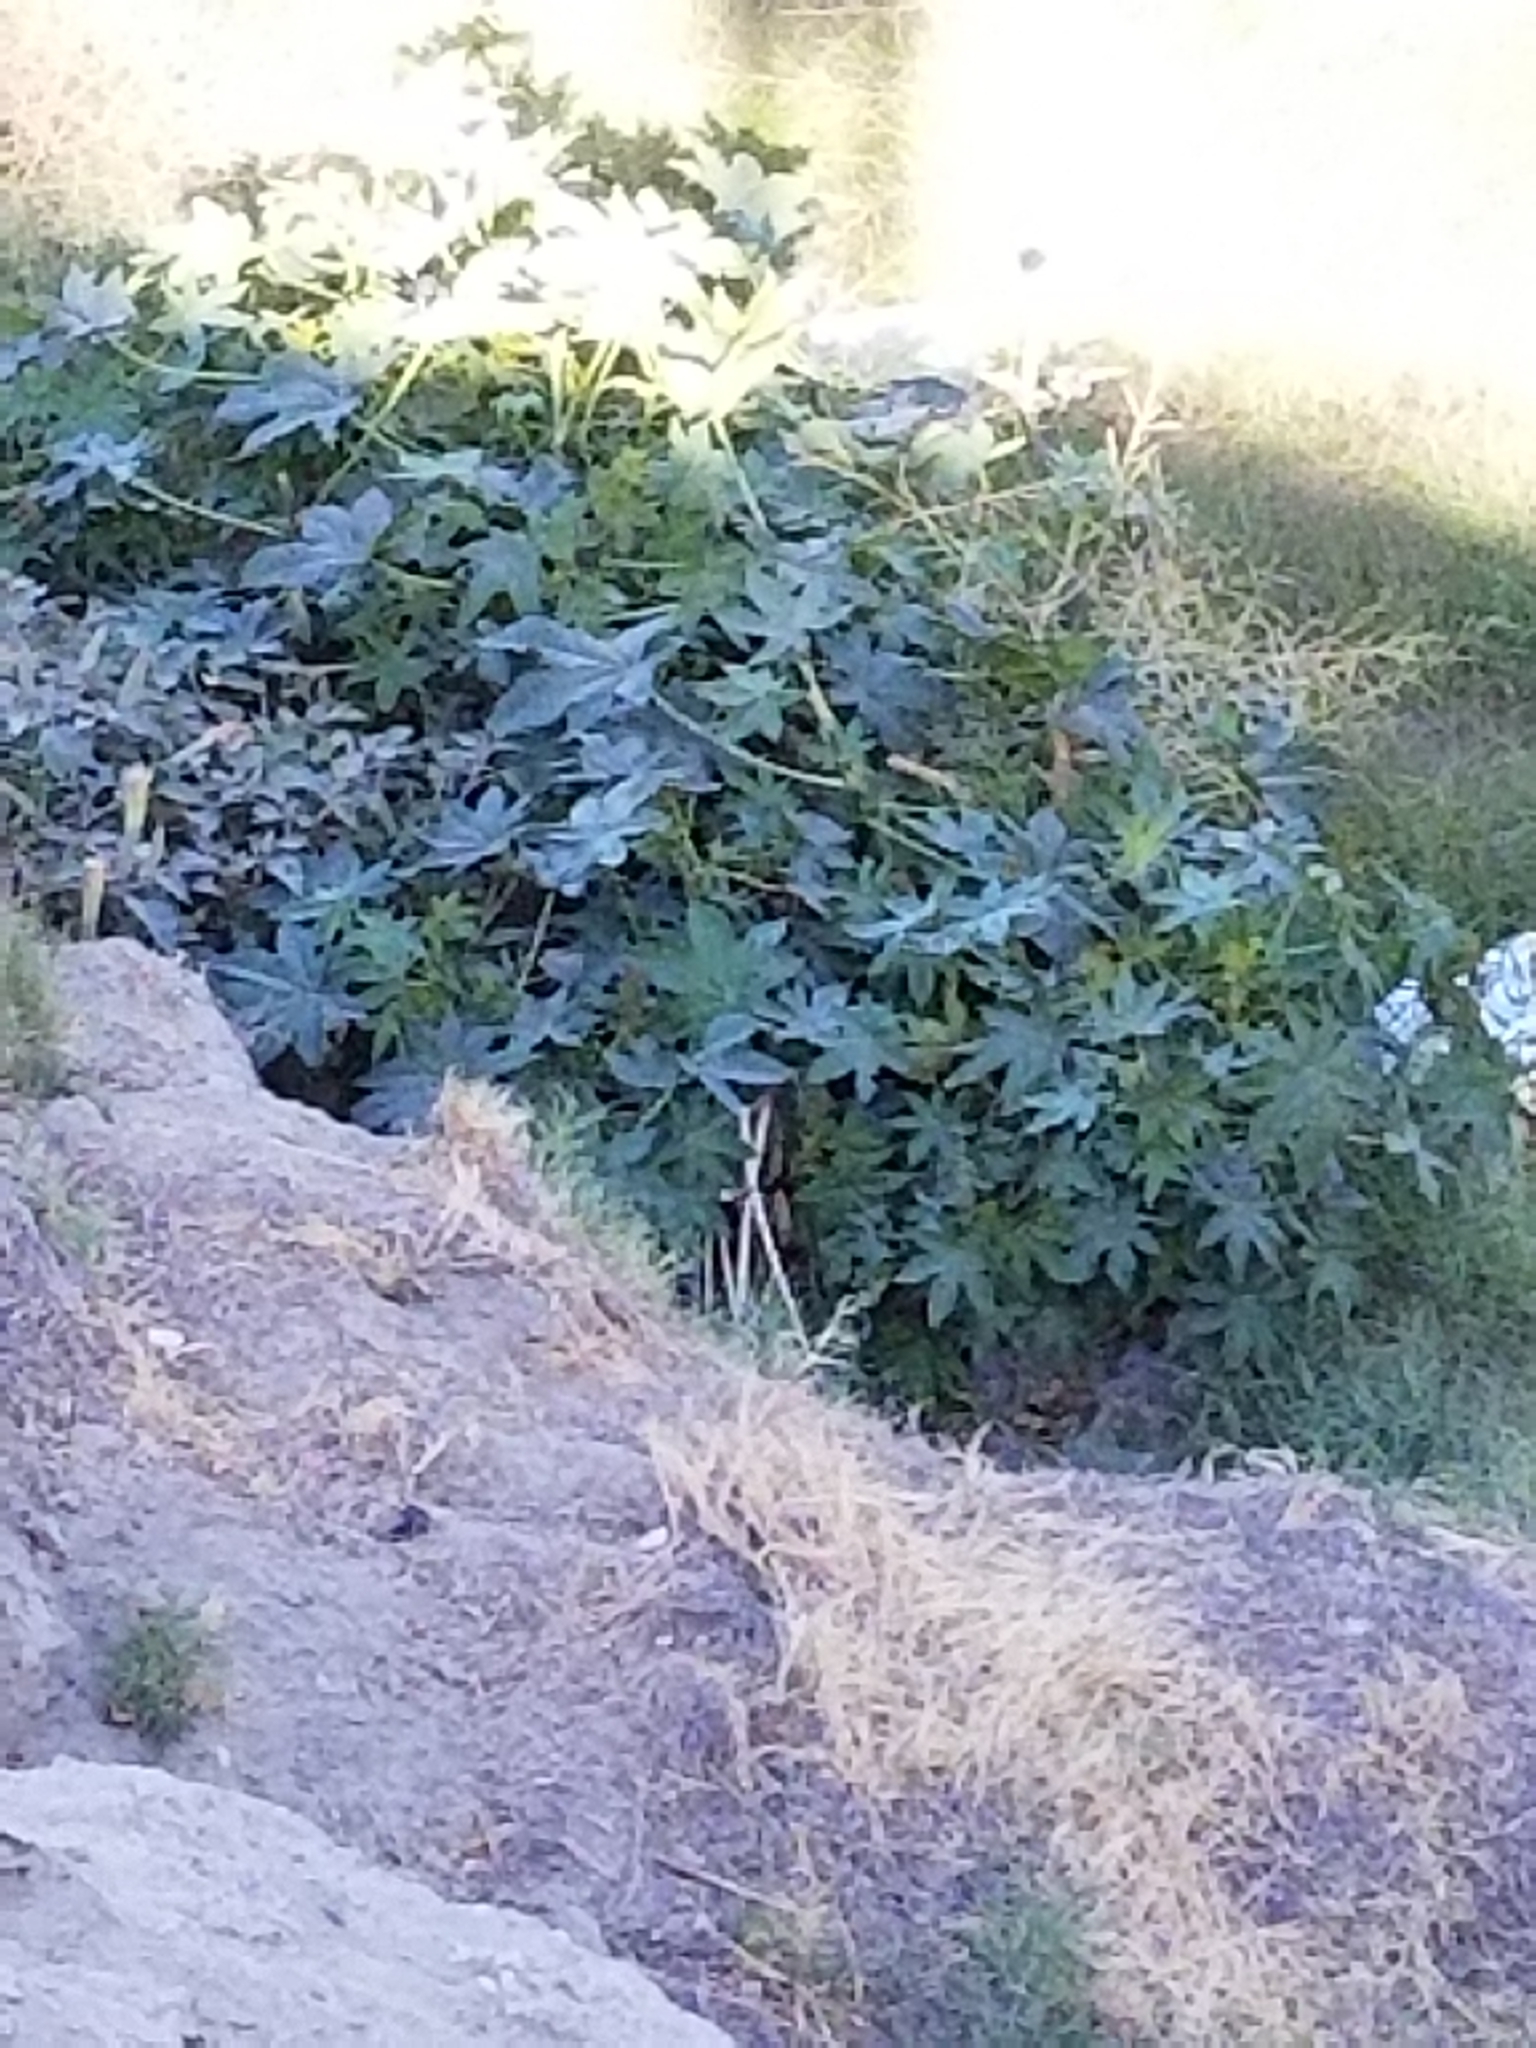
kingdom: Plantae
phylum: Tracheophyta
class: Magnoliopsida
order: Malpighiales
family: Euphorbiaceae
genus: Ricinus
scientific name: Ricinus communis
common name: Castor-oil-plant
